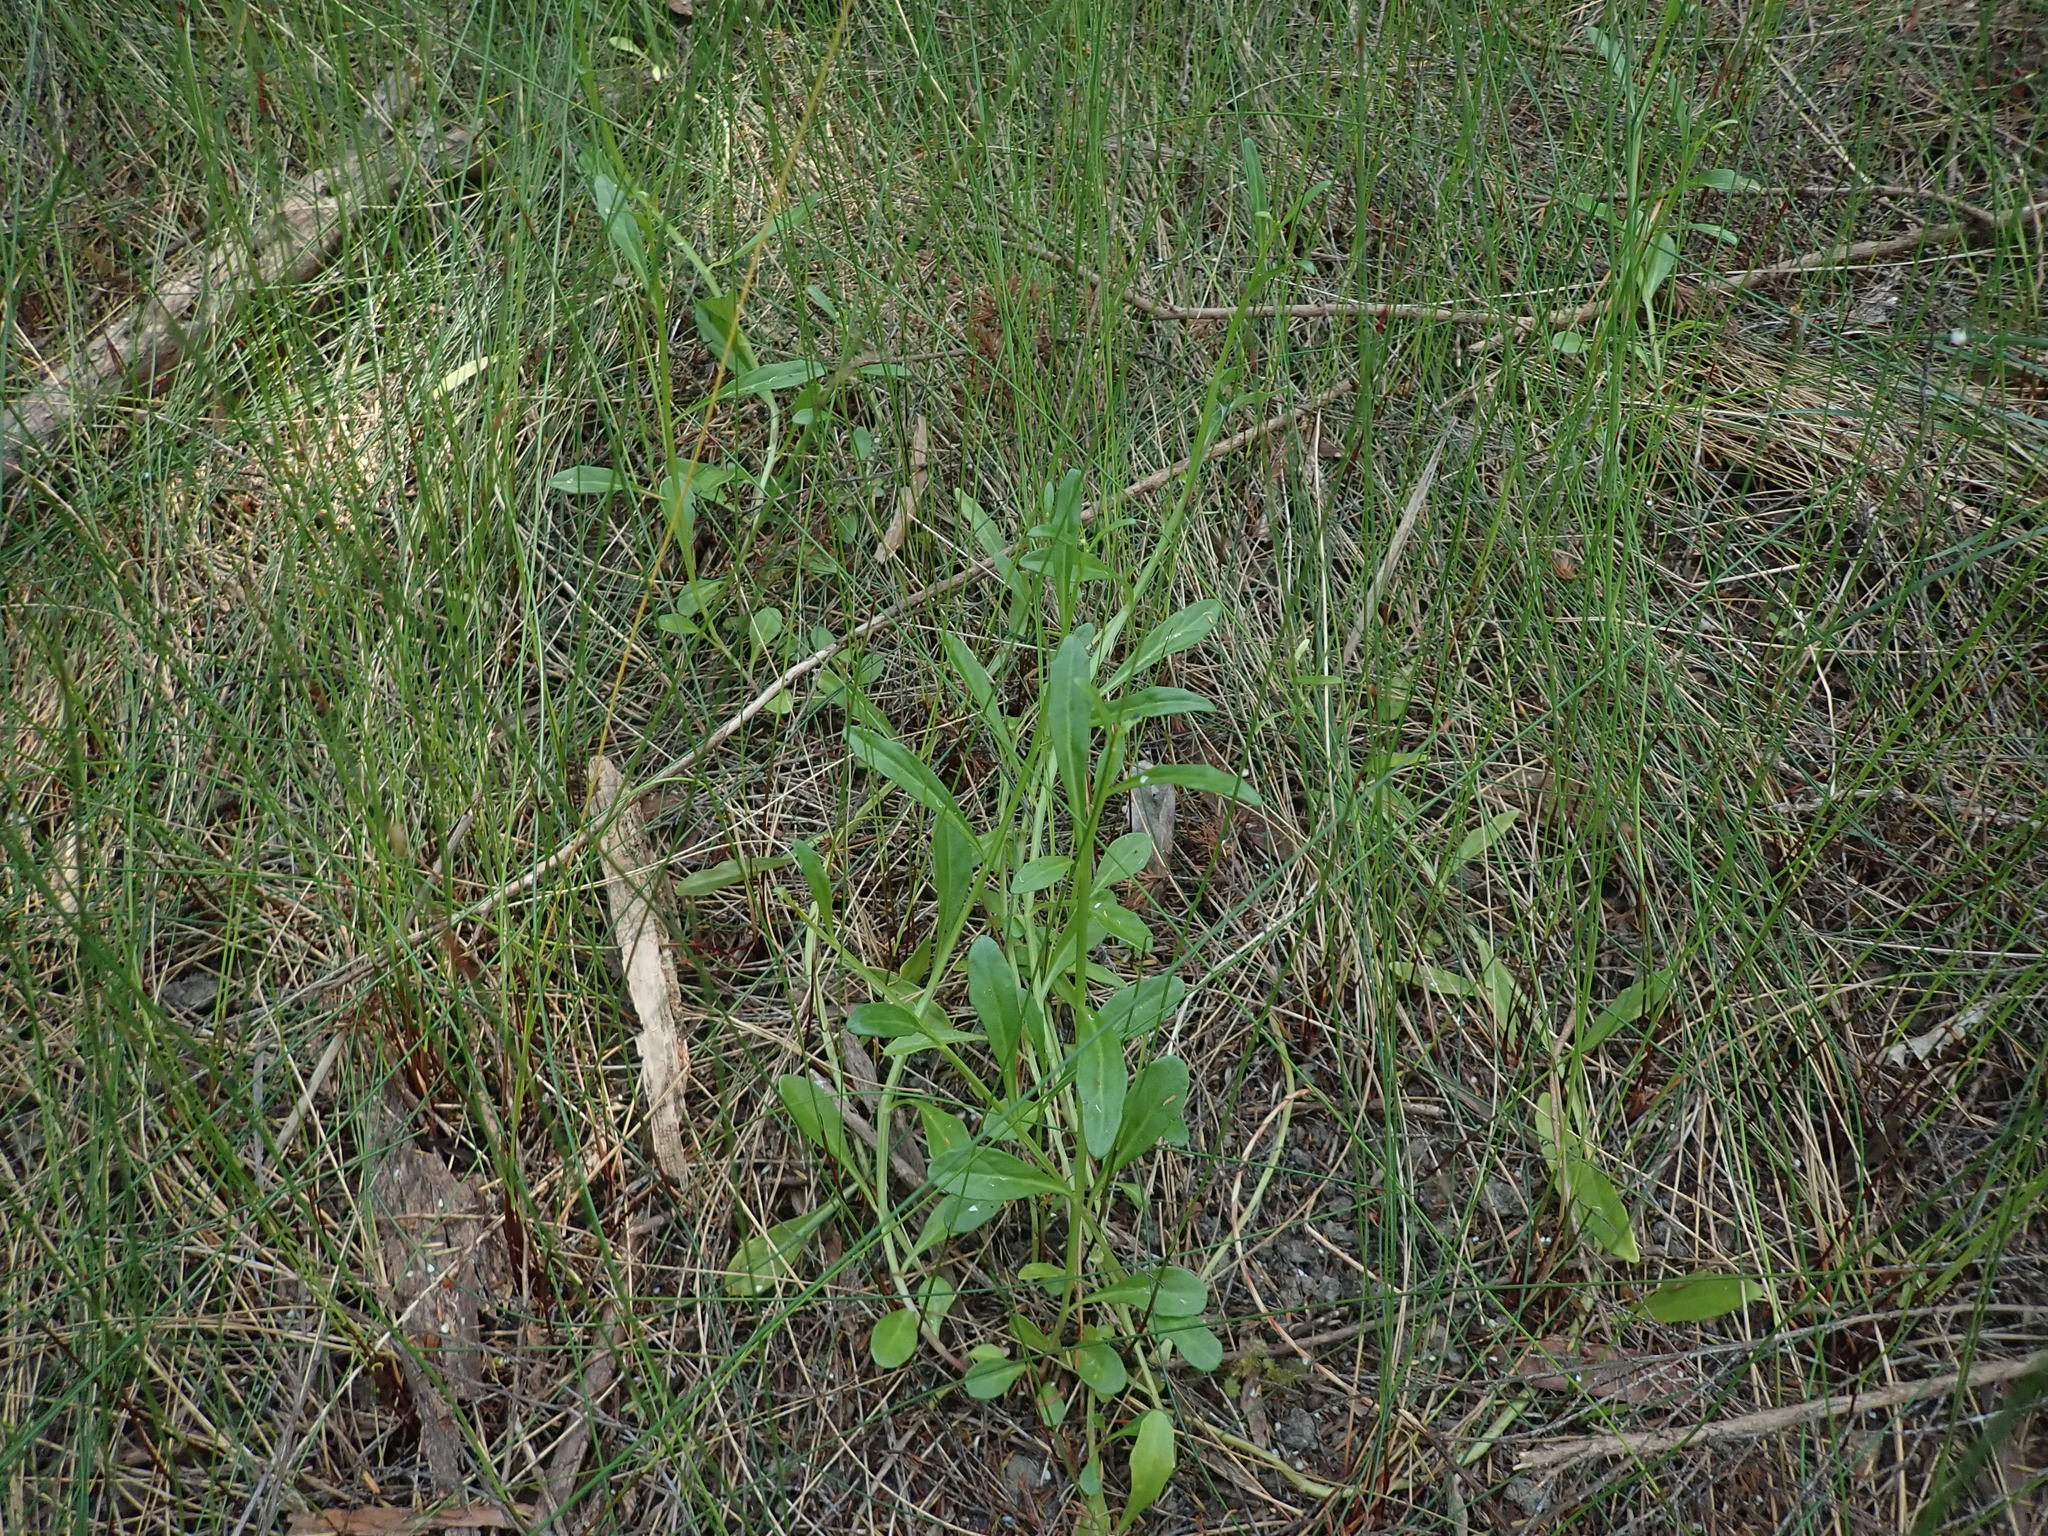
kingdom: Plantae
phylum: Tracheophyta
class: Magnoliopsida
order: Asterales
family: Campanulaceae
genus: Lobelia
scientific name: Lobelia anceps
